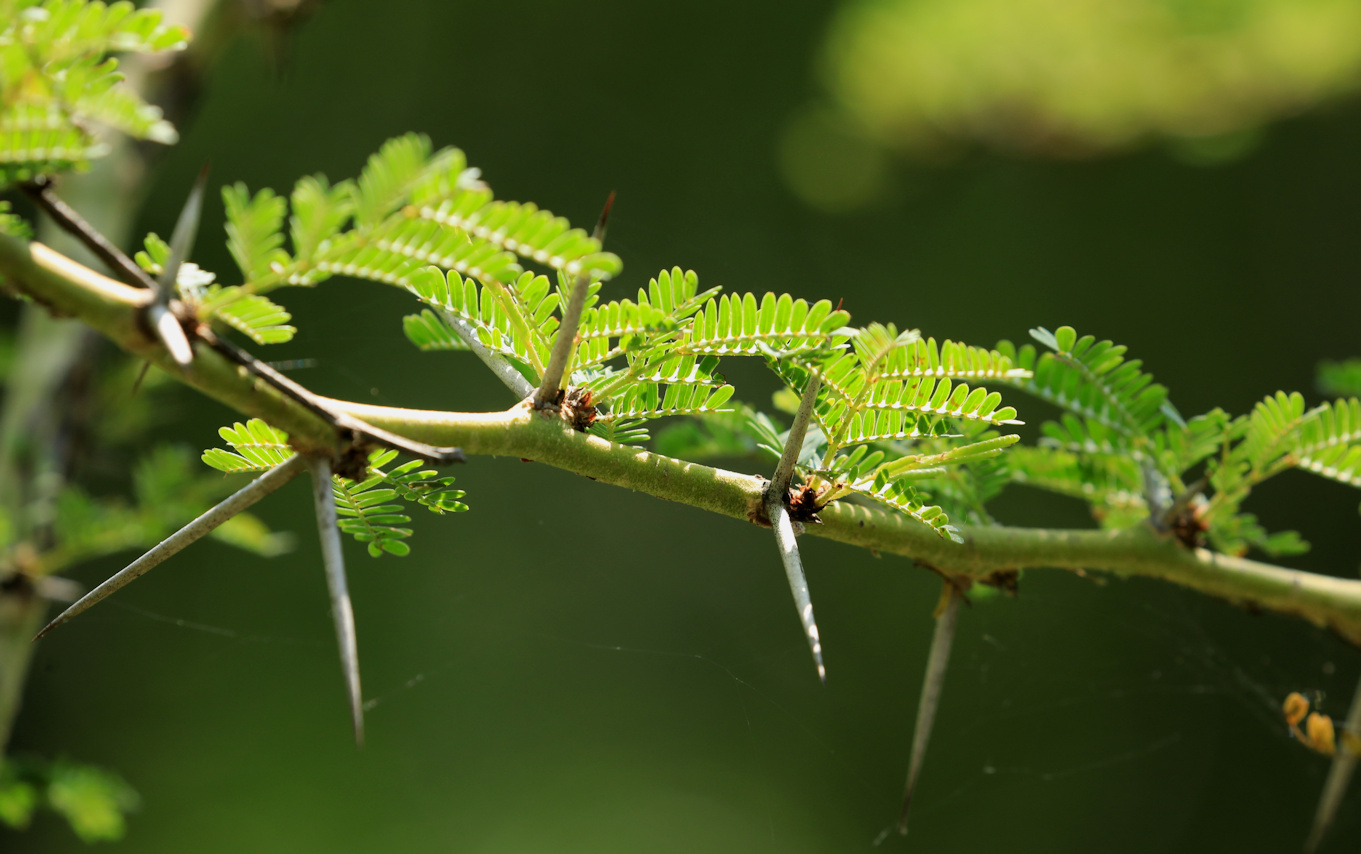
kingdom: Plantae
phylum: Tracheophyta
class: Magnoliopsida
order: Fabales
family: Fabaceae
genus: Vachellia
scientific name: Vachellia xanthophloea
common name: Fever tree
